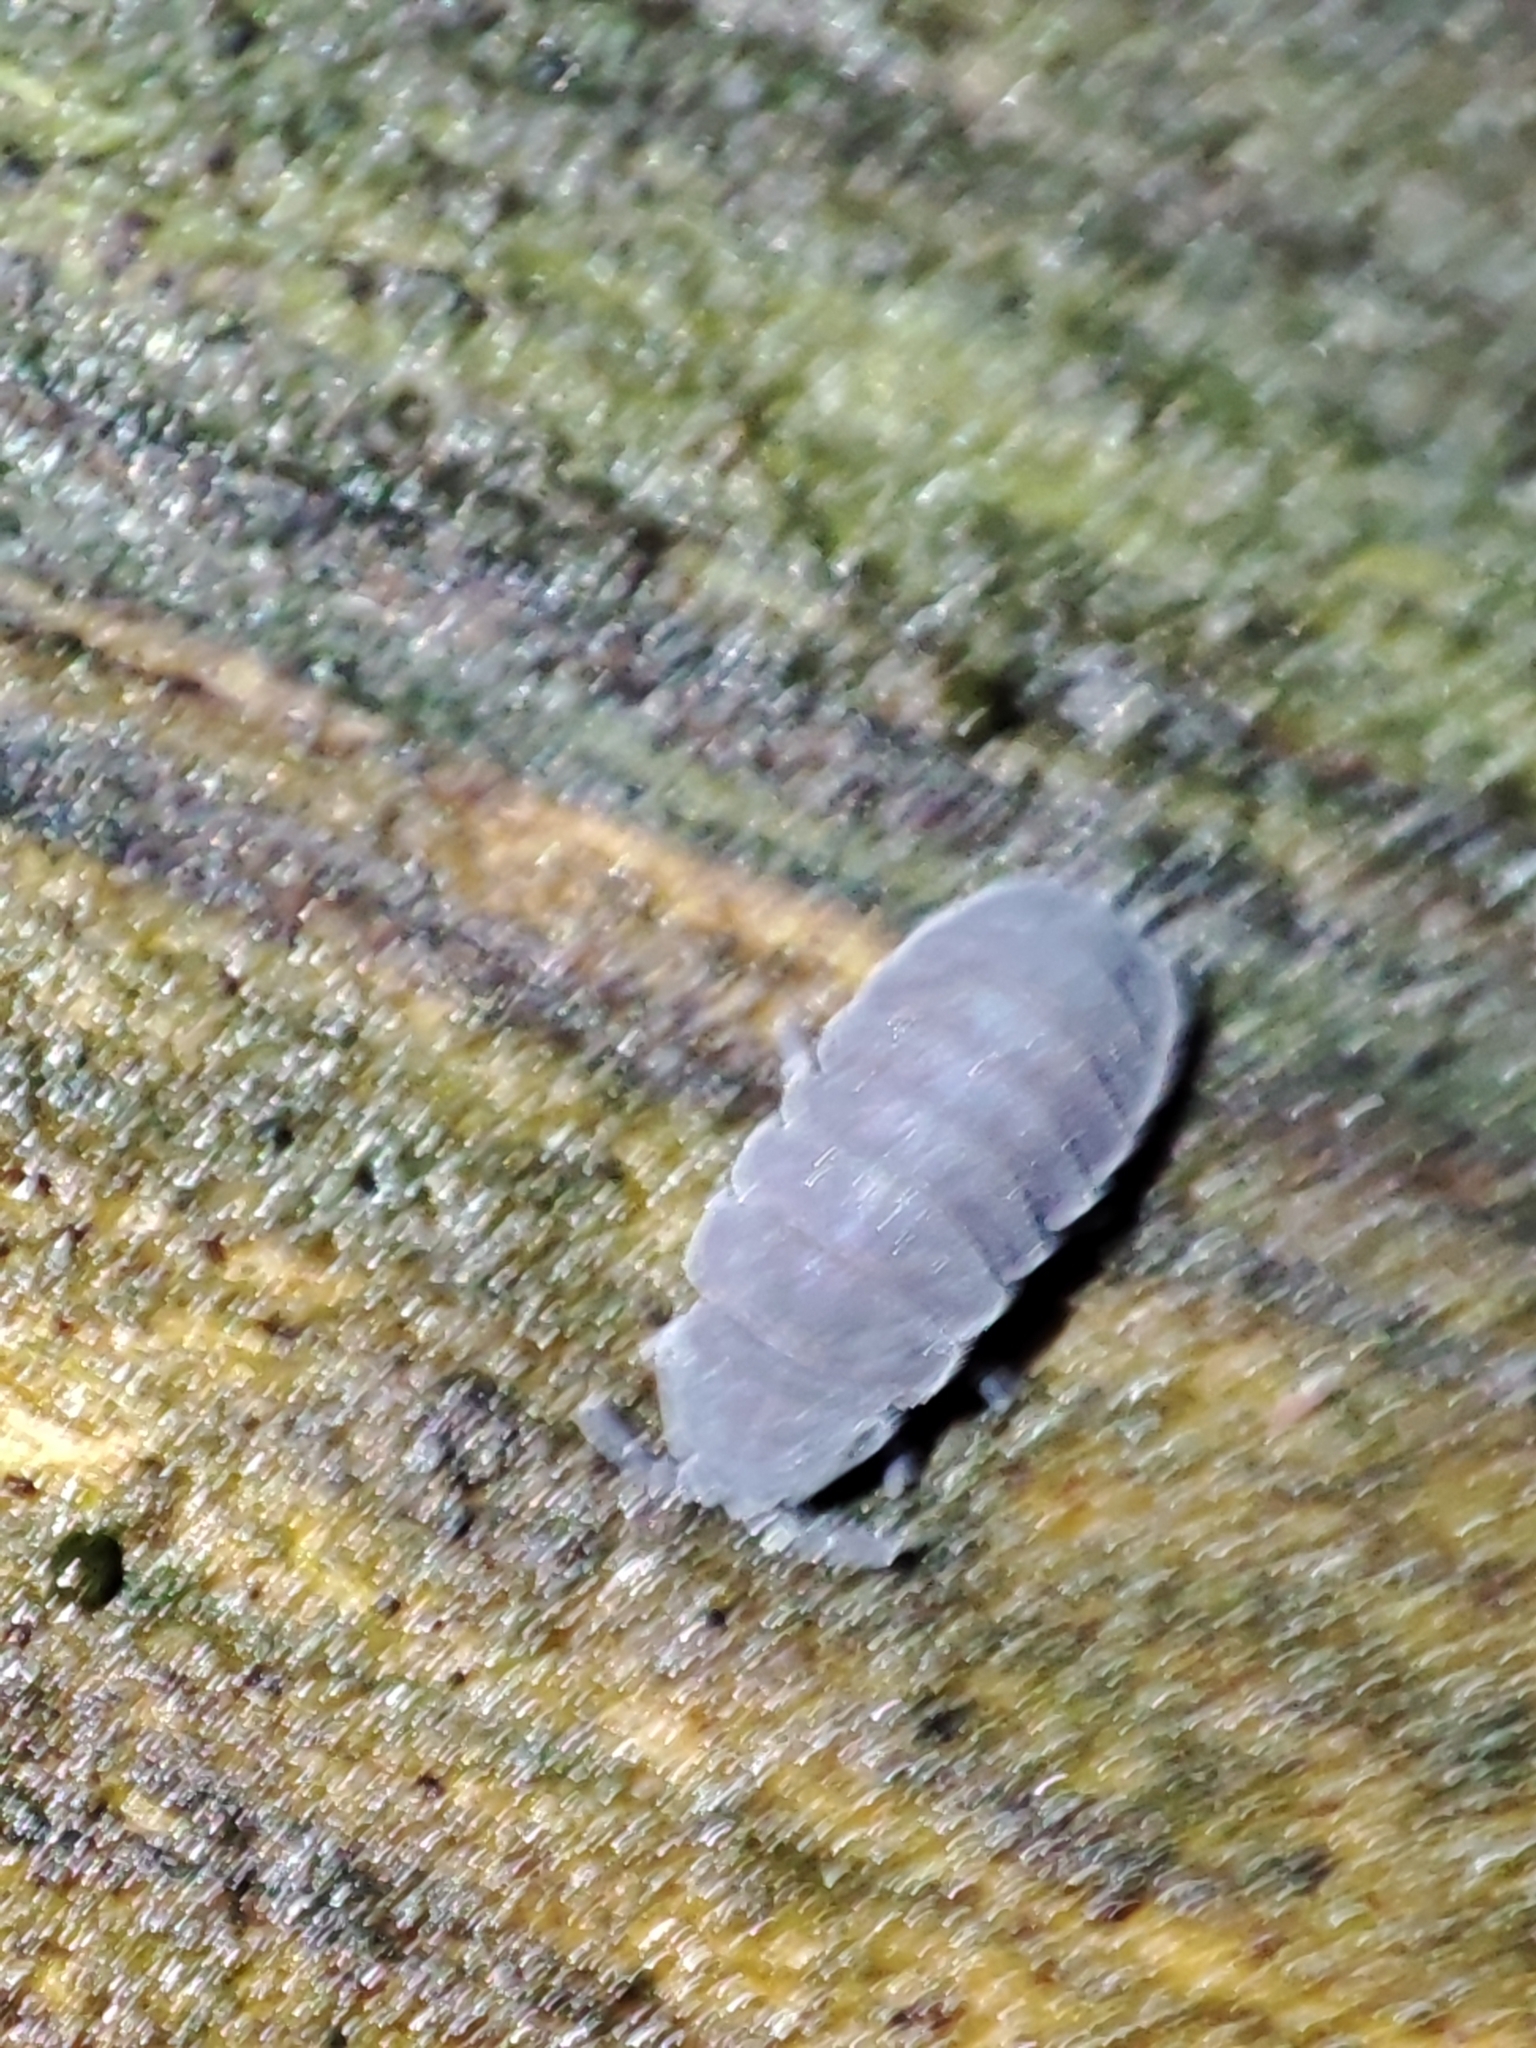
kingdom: Animalia
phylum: Arthropoda
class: Collembola
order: Poduromorpha
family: Onychiuridae
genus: Tetrodontophora
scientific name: Tetrodontophora bielanensis
